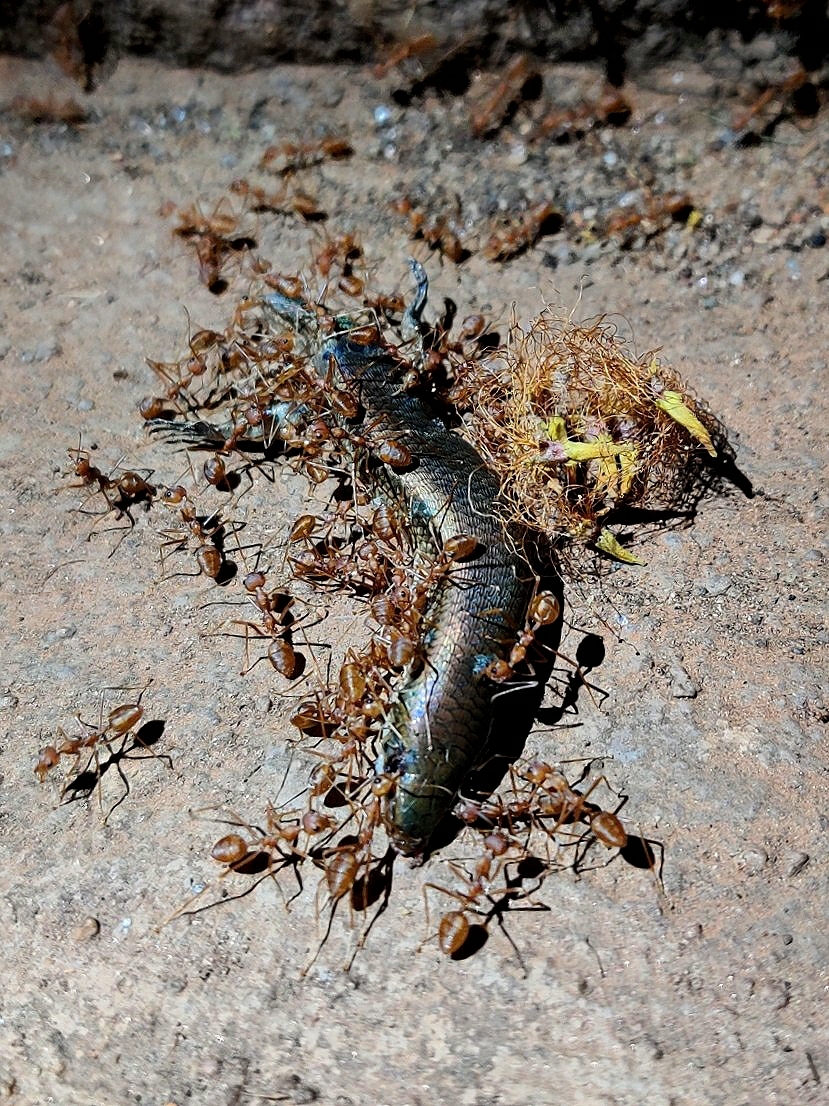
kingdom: Animalia
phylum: Chordata
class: Squamata
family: Scincidae
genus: Eutropis
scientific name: Eutropis macularia
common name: Bronze mabuya
